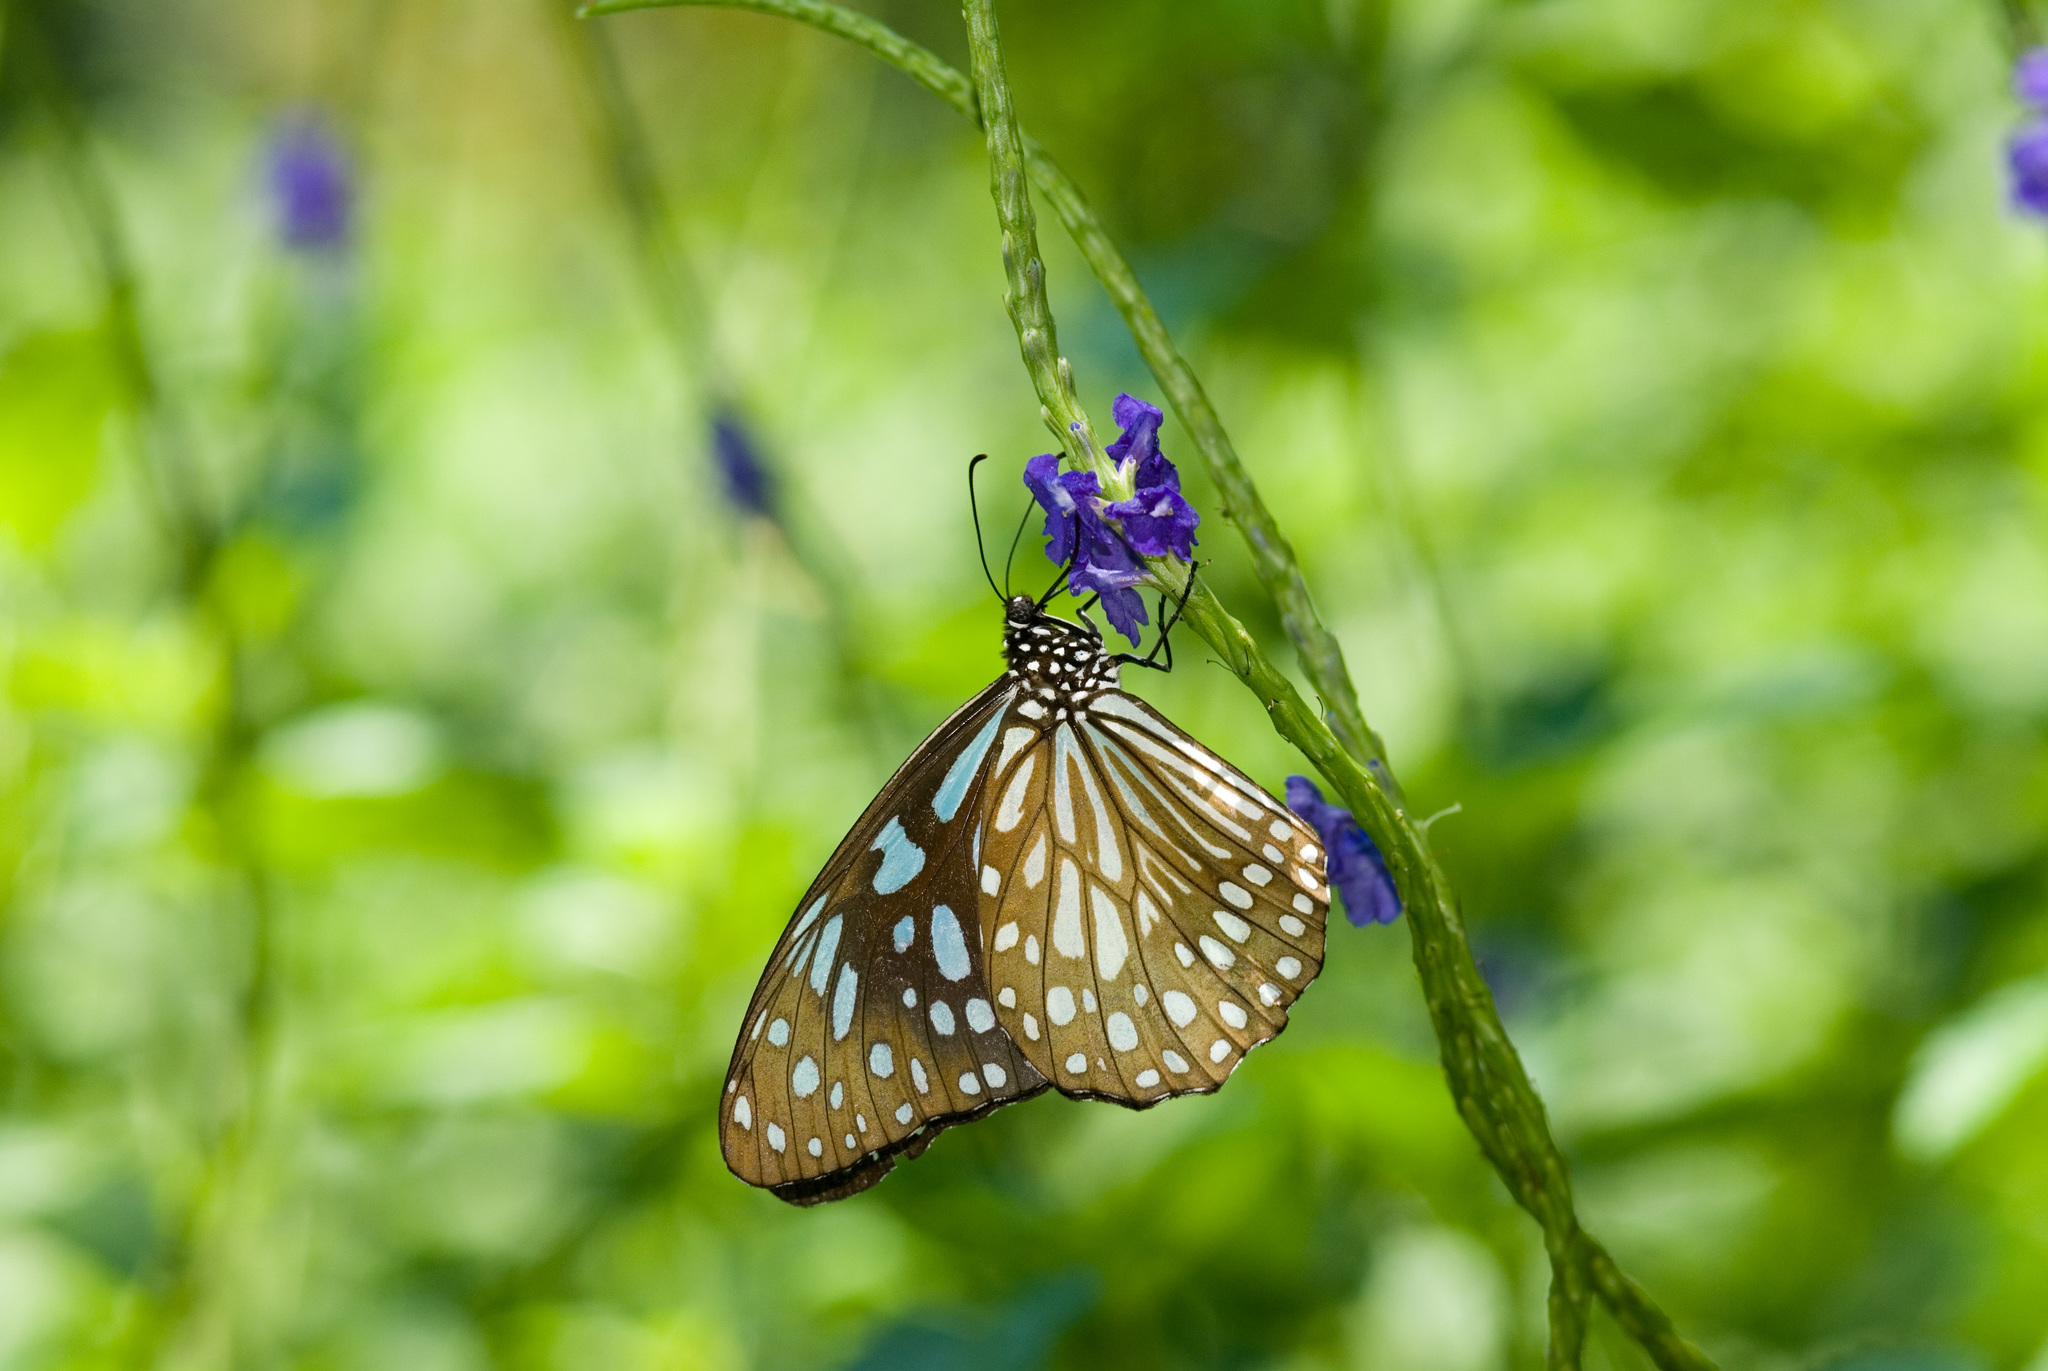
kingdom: Animalia
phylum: Arthropoda
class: Insecta
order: Lepidoptera
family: Nymphalidae
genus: Tirumala
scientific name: Tirumala limniace
